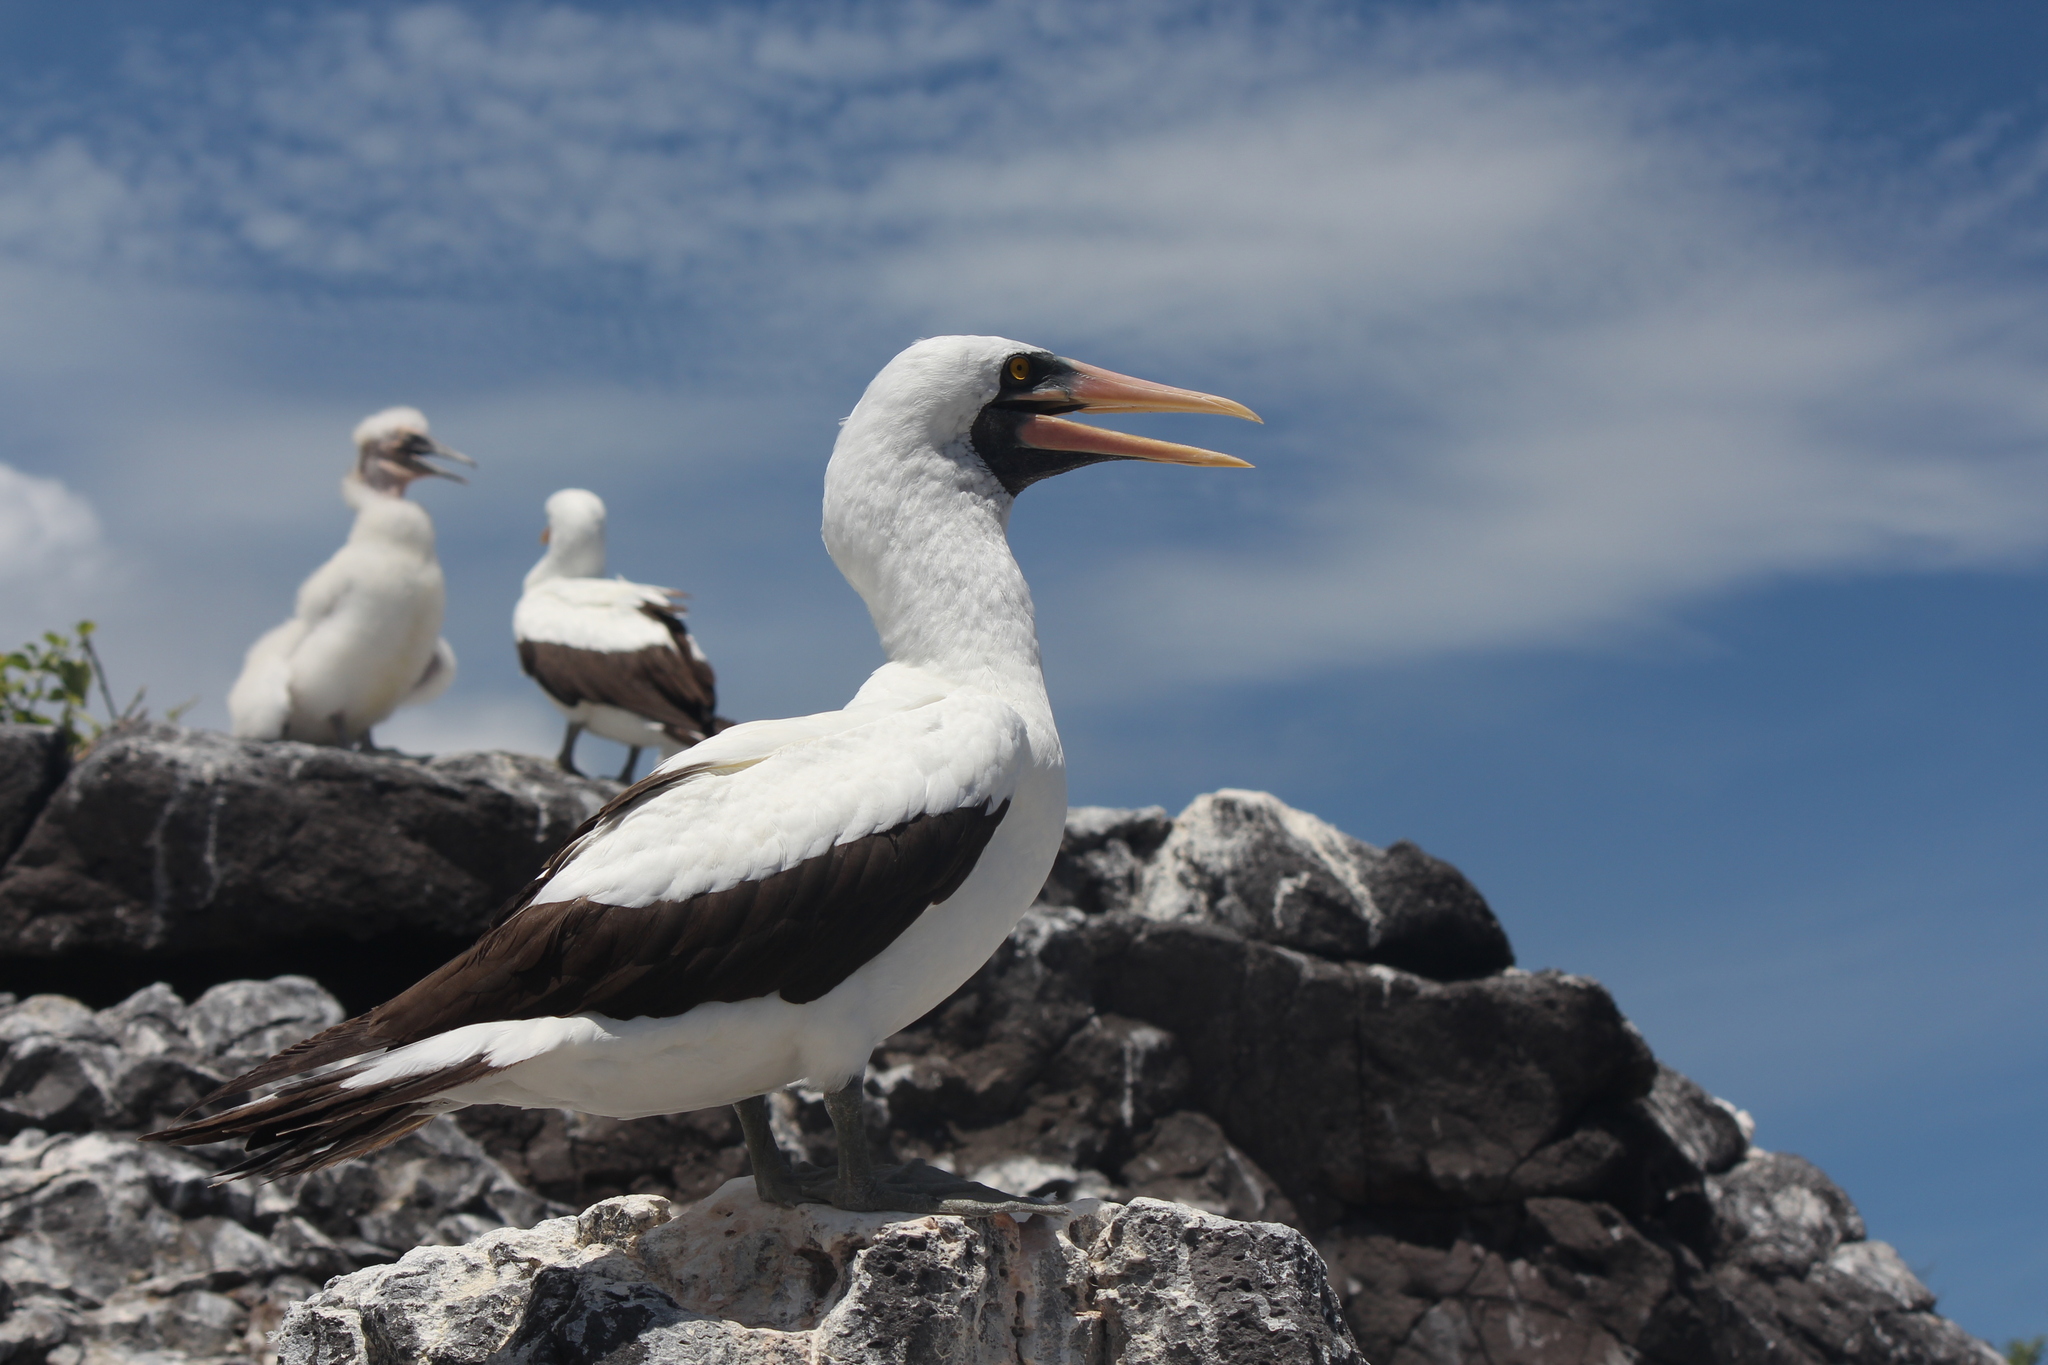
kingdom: Animalia
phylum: Chordata
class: Aves
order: Suliformes
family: Sulidae
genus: Sula
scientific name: Sula granti
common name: Nazca booby
